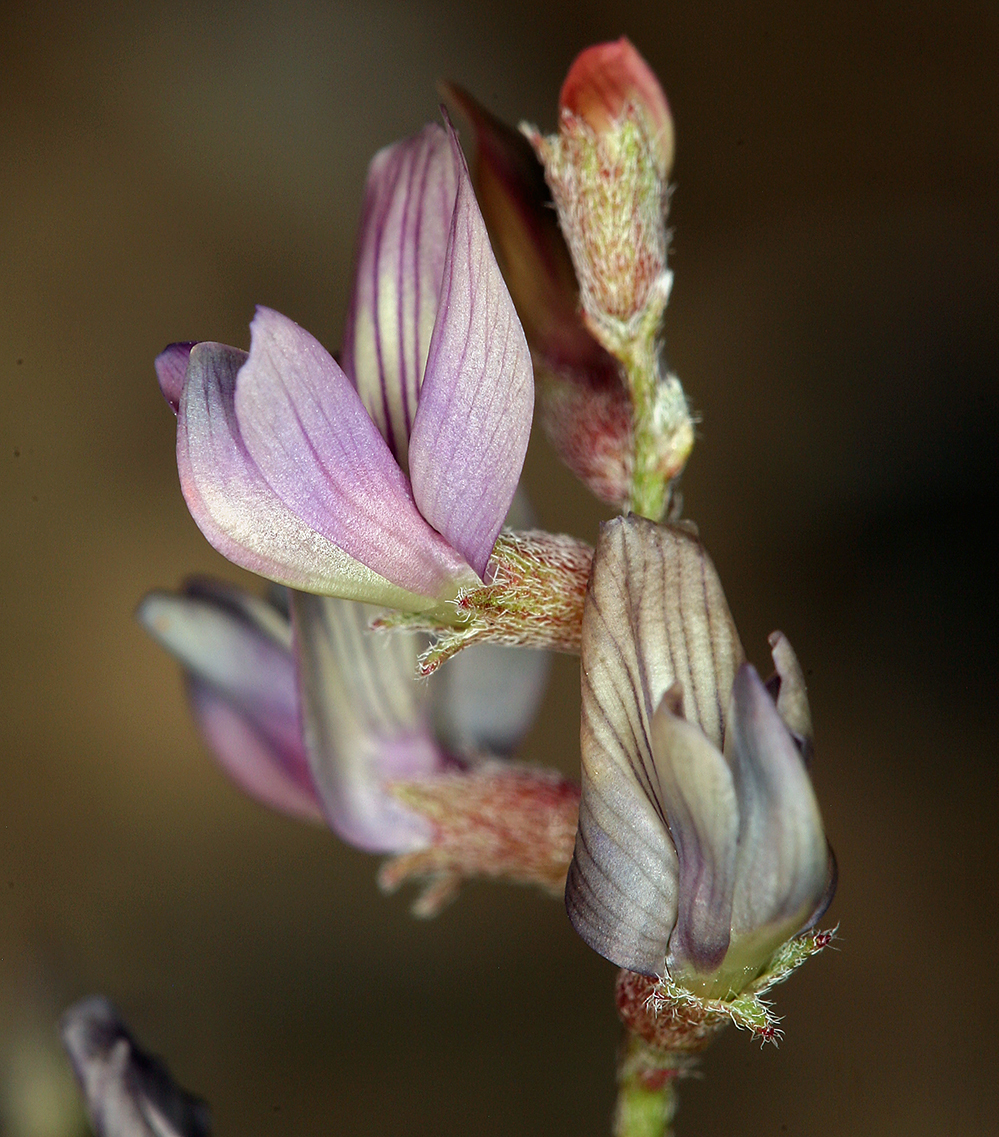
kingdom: Plantae
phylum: Tracheophyta
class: Magnoliopsida
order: Fabales
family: Fabaceae
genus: Astragalus
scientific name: Astragalus inyoensis
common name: Inyo locoweed
